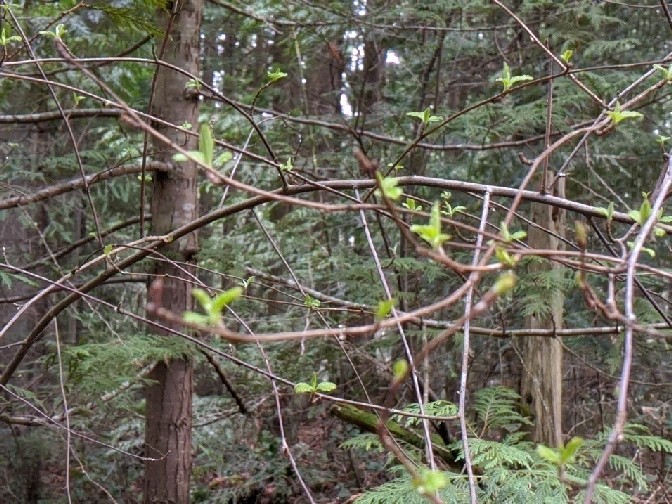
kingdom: Plantae
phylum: Tracheophyta
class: Magnoliopsida
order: Rosales
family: Rosaceae
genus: Holodiscus
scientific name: Holodiscus discolor
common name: Oceanspray
